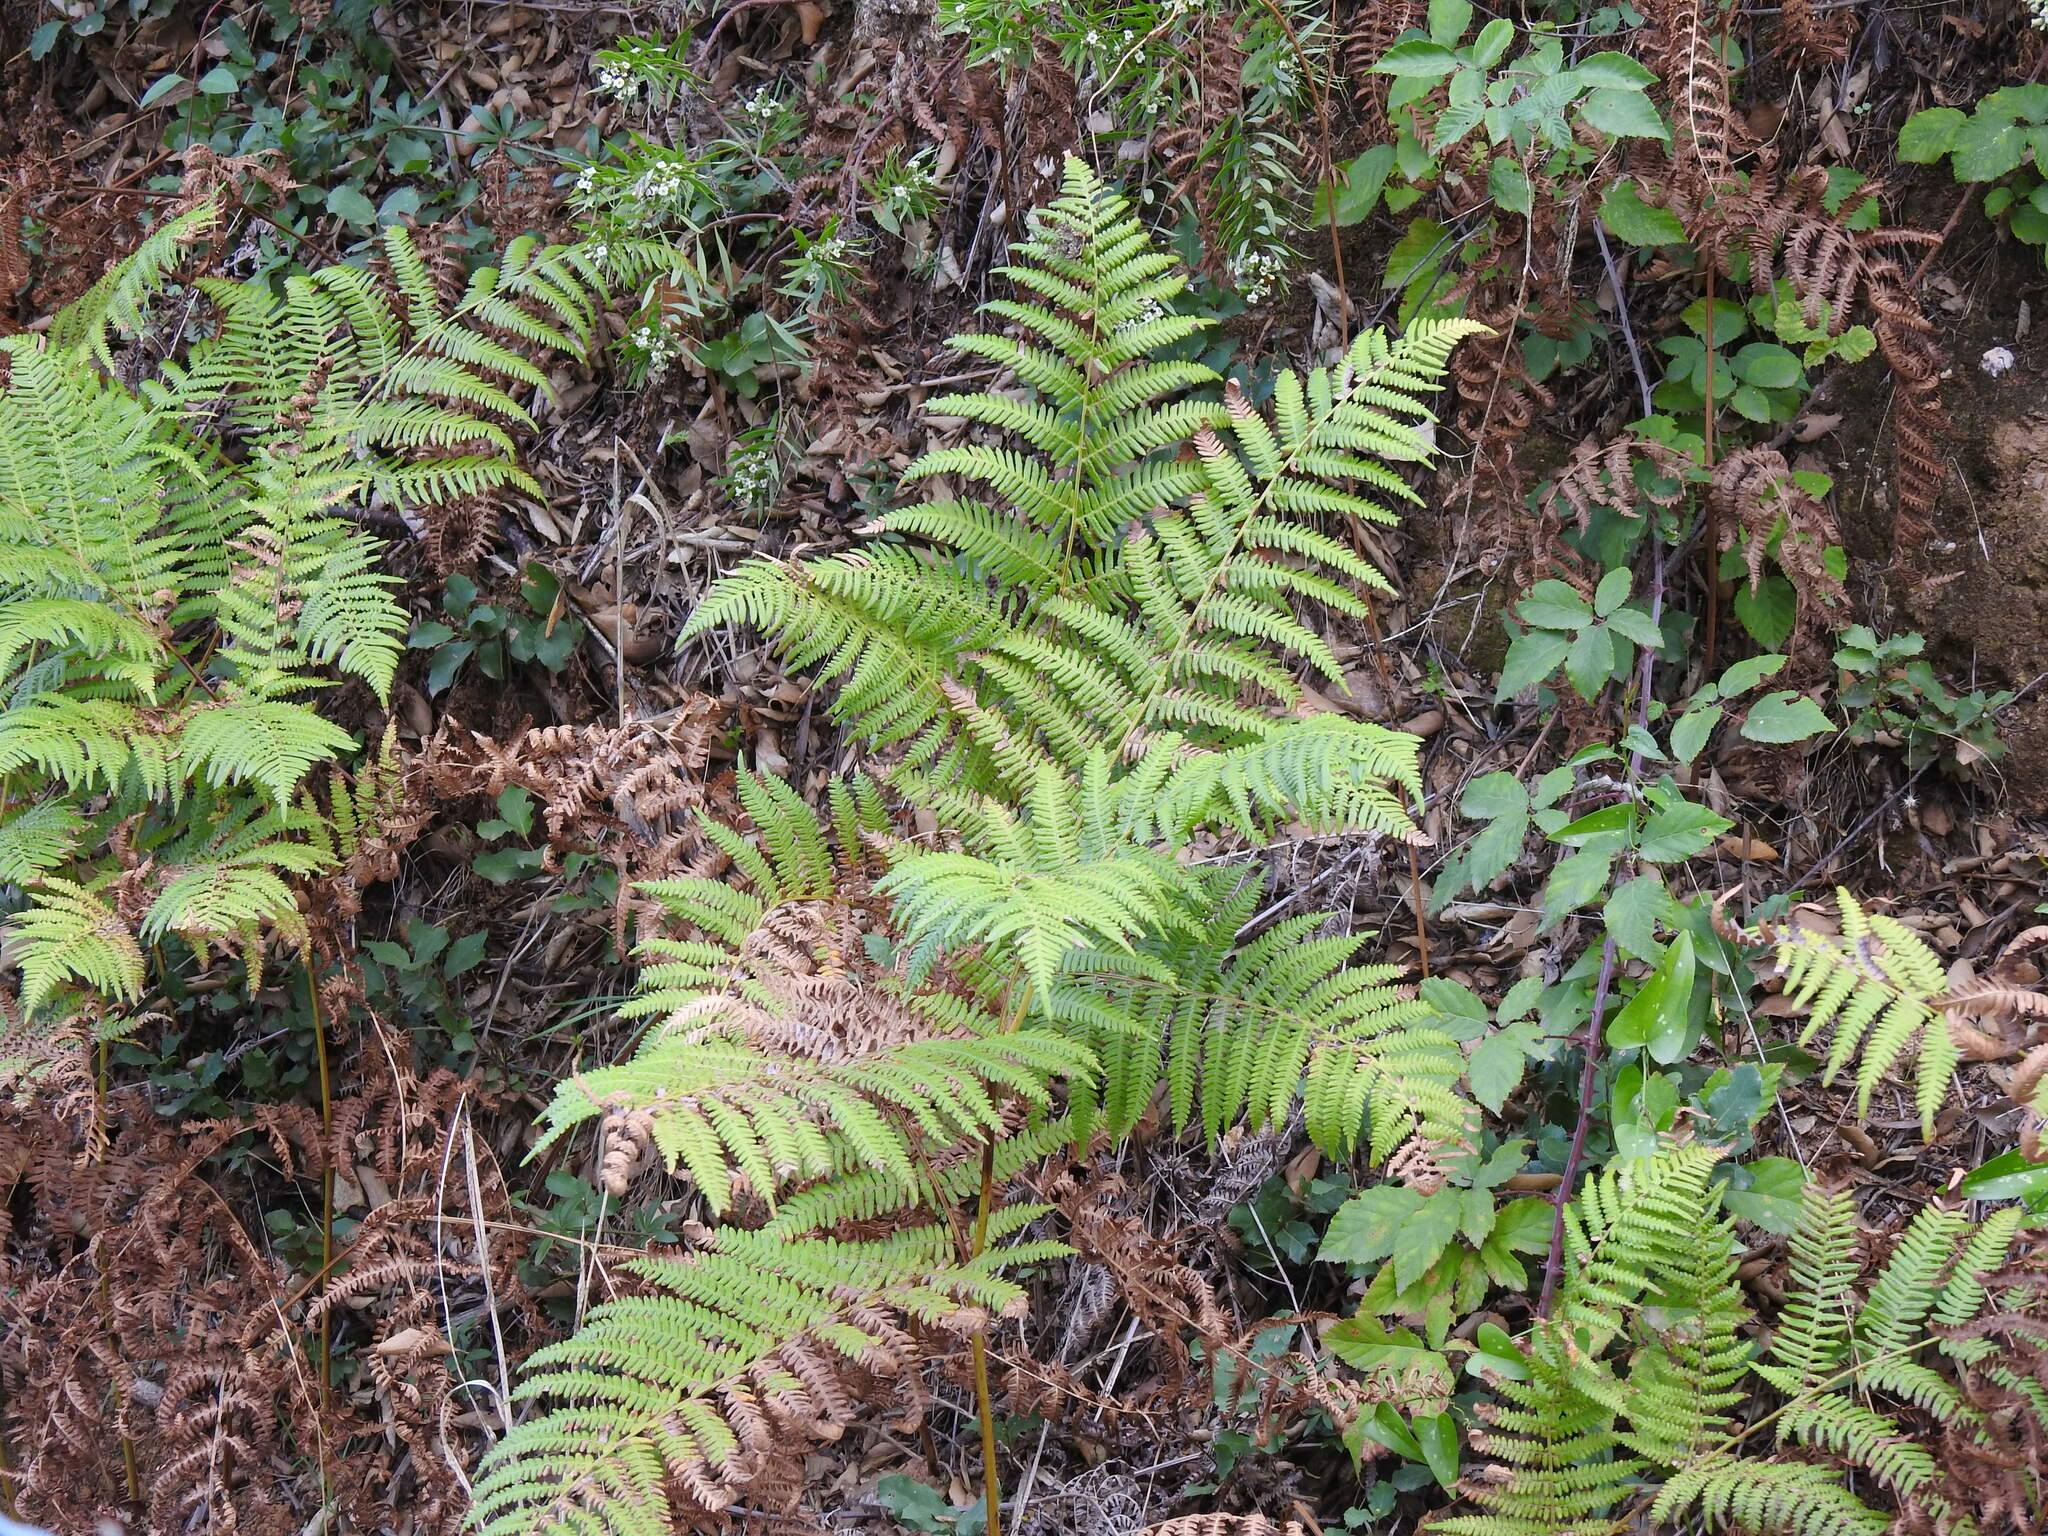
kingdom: Plantae
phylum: Tracheophyta
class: Polypodiopsida
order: Polypodiales
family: Dennstaedtiaceae
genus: Pteridium
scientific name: Pteridium aquilinum
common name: Bracken
